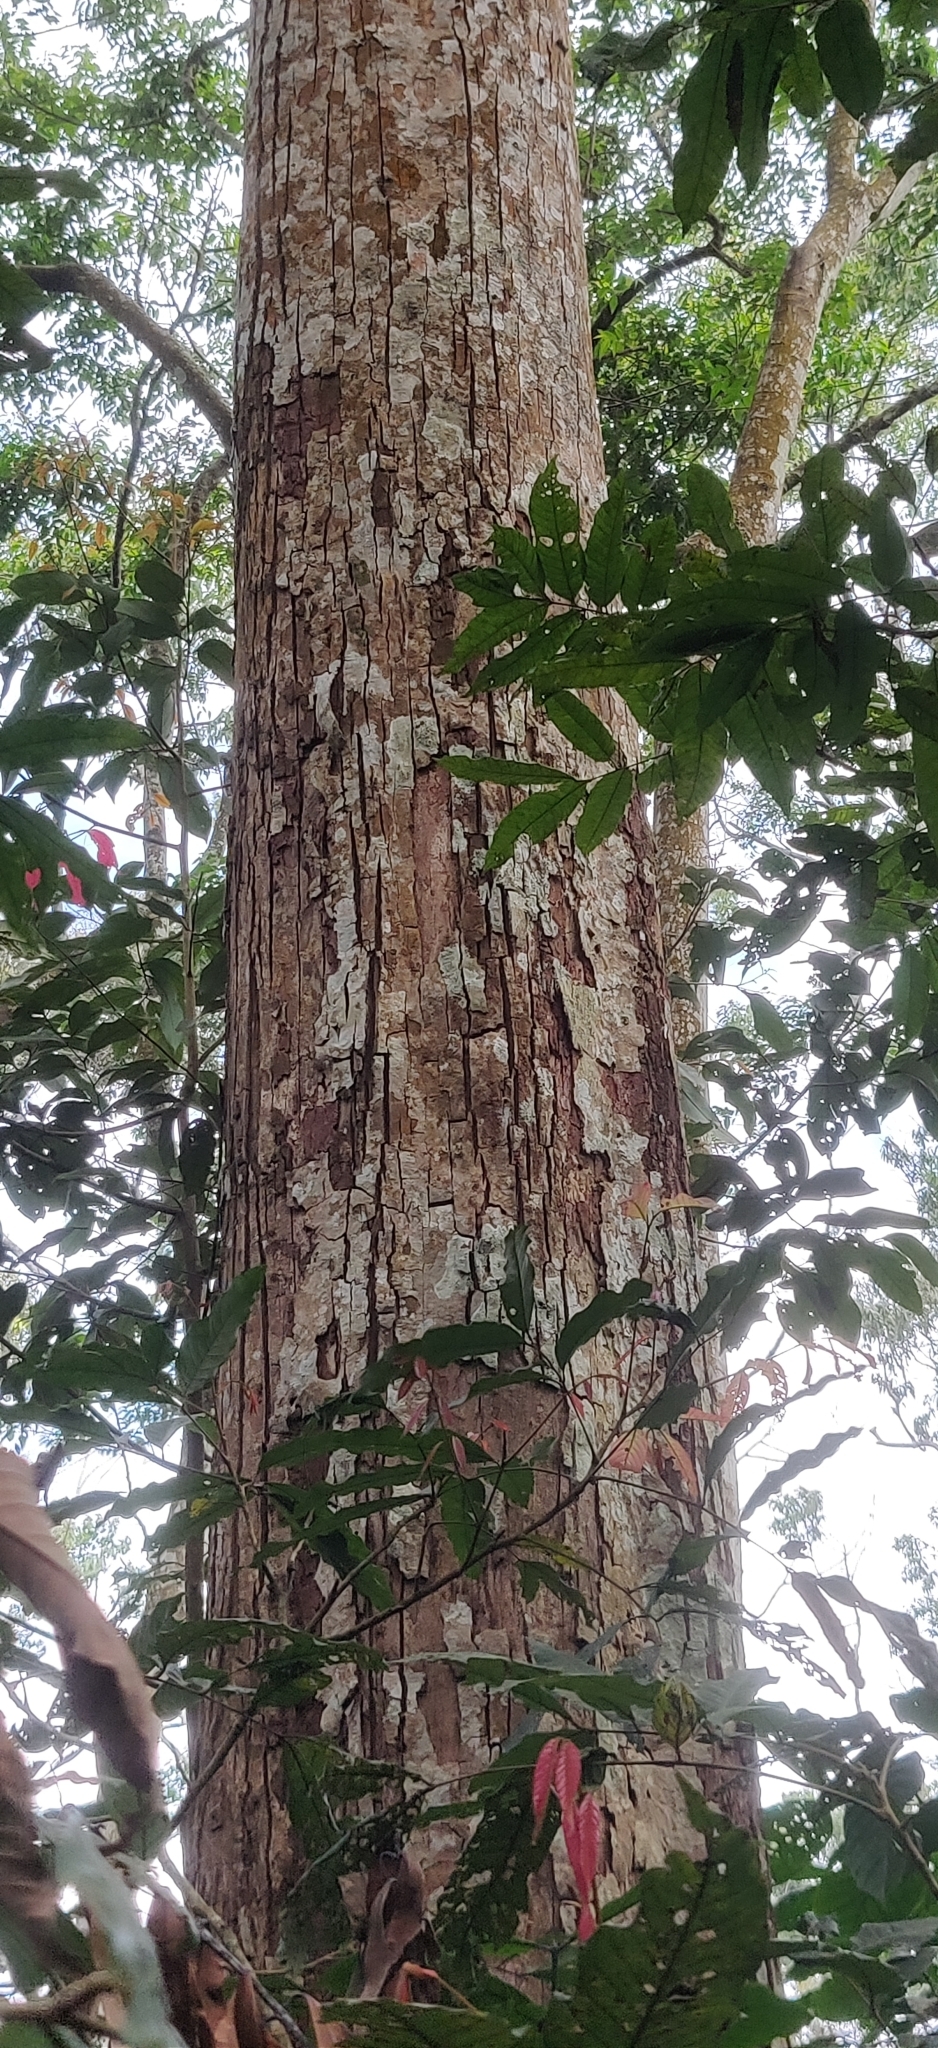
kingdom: Plantae
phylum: Tracheophyta
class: Magnoliopsida
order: Malvales
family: Malvaceae
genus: Cullenia
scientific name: Cullenia exarillata
